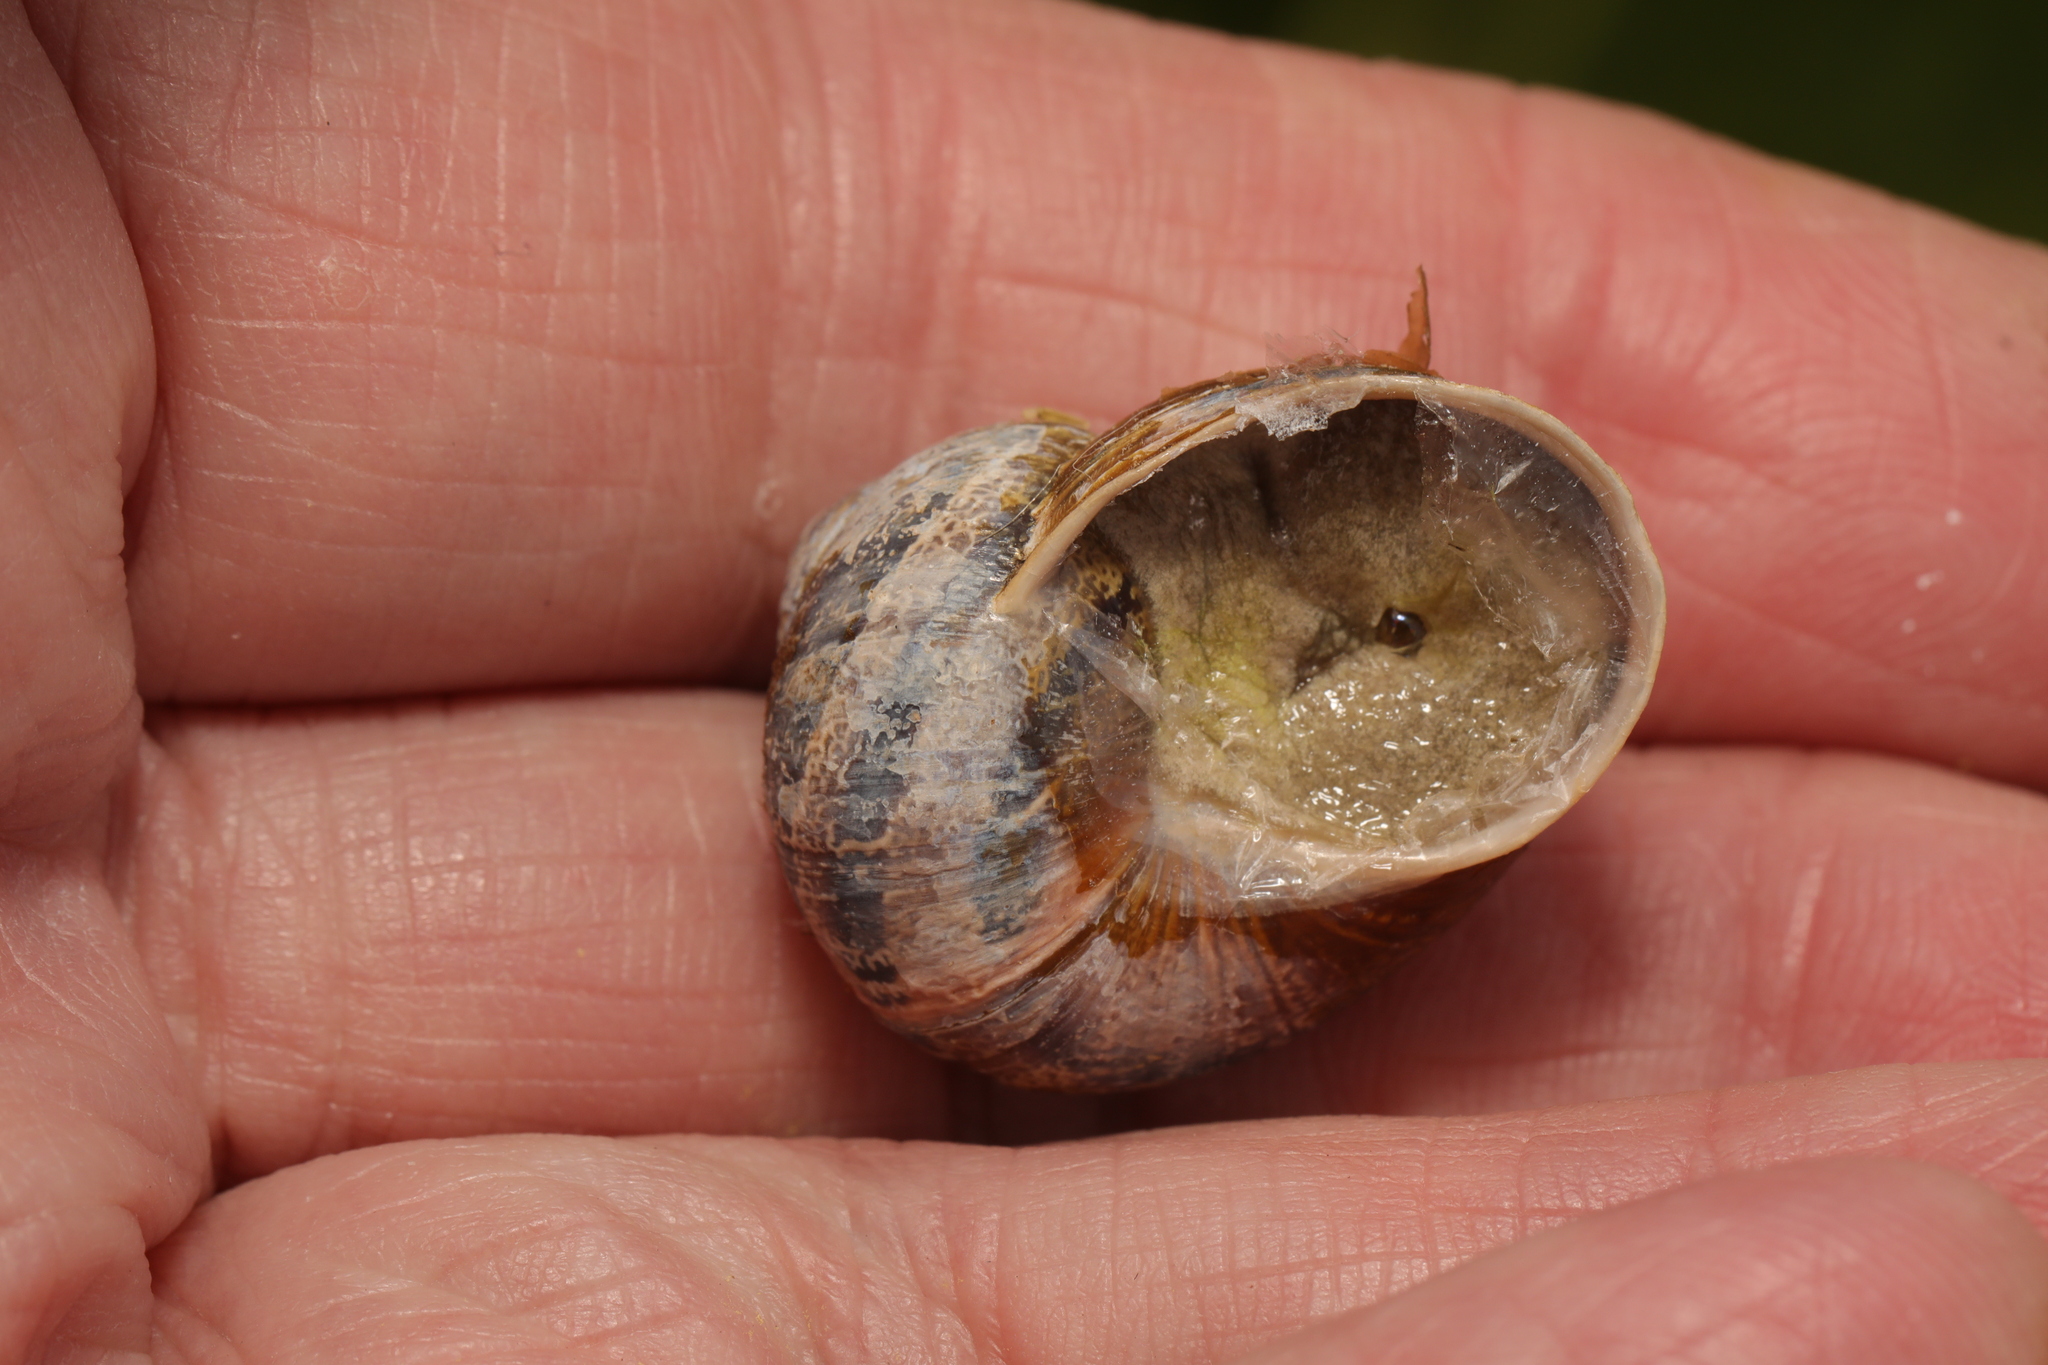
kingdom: Animalia
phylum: Mollusca
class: Gastropoda
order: Stylommatophora
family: Helicidae
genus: Cornu
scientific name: Cornu aspersum
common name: Brown garden snail
